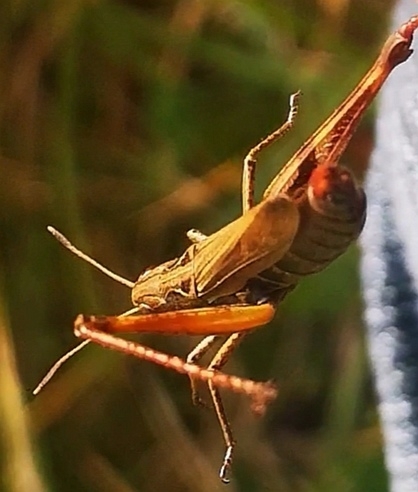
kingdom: Animalia
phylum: Arthropoda
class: Insecta
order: Orthoptera
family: Acrididae
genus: Gomphocerippus
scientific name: Gomphocerippus rufus
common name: Rufous grasshopper
